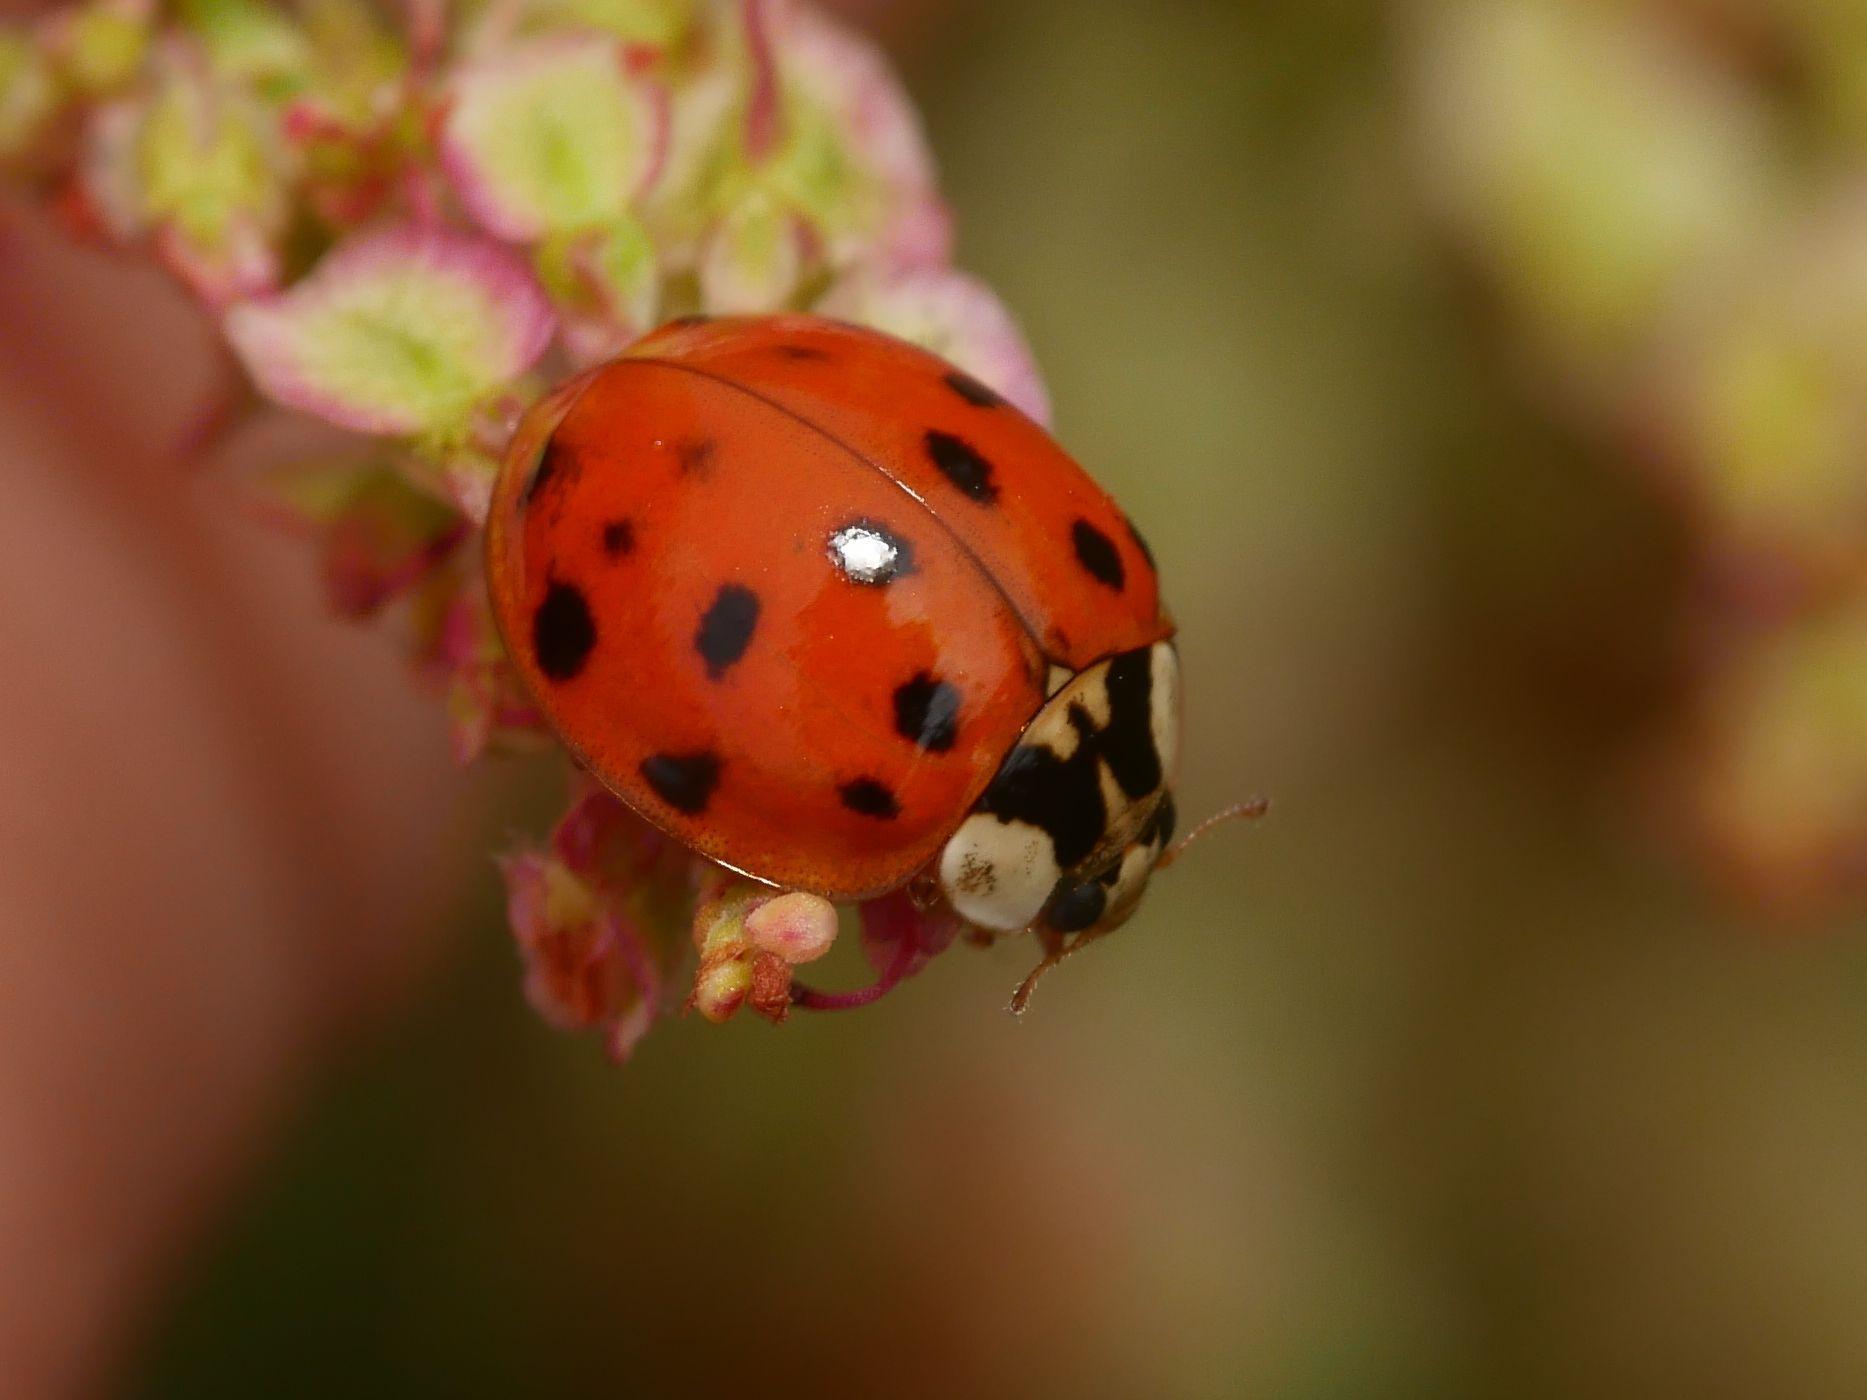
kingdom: Animalia
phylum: Arthropoda
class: Insecta
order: Coleoptera
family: Coccinellidae
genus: Harmonia
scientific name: Harmonia axyridis
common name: Harlequin ladybird
